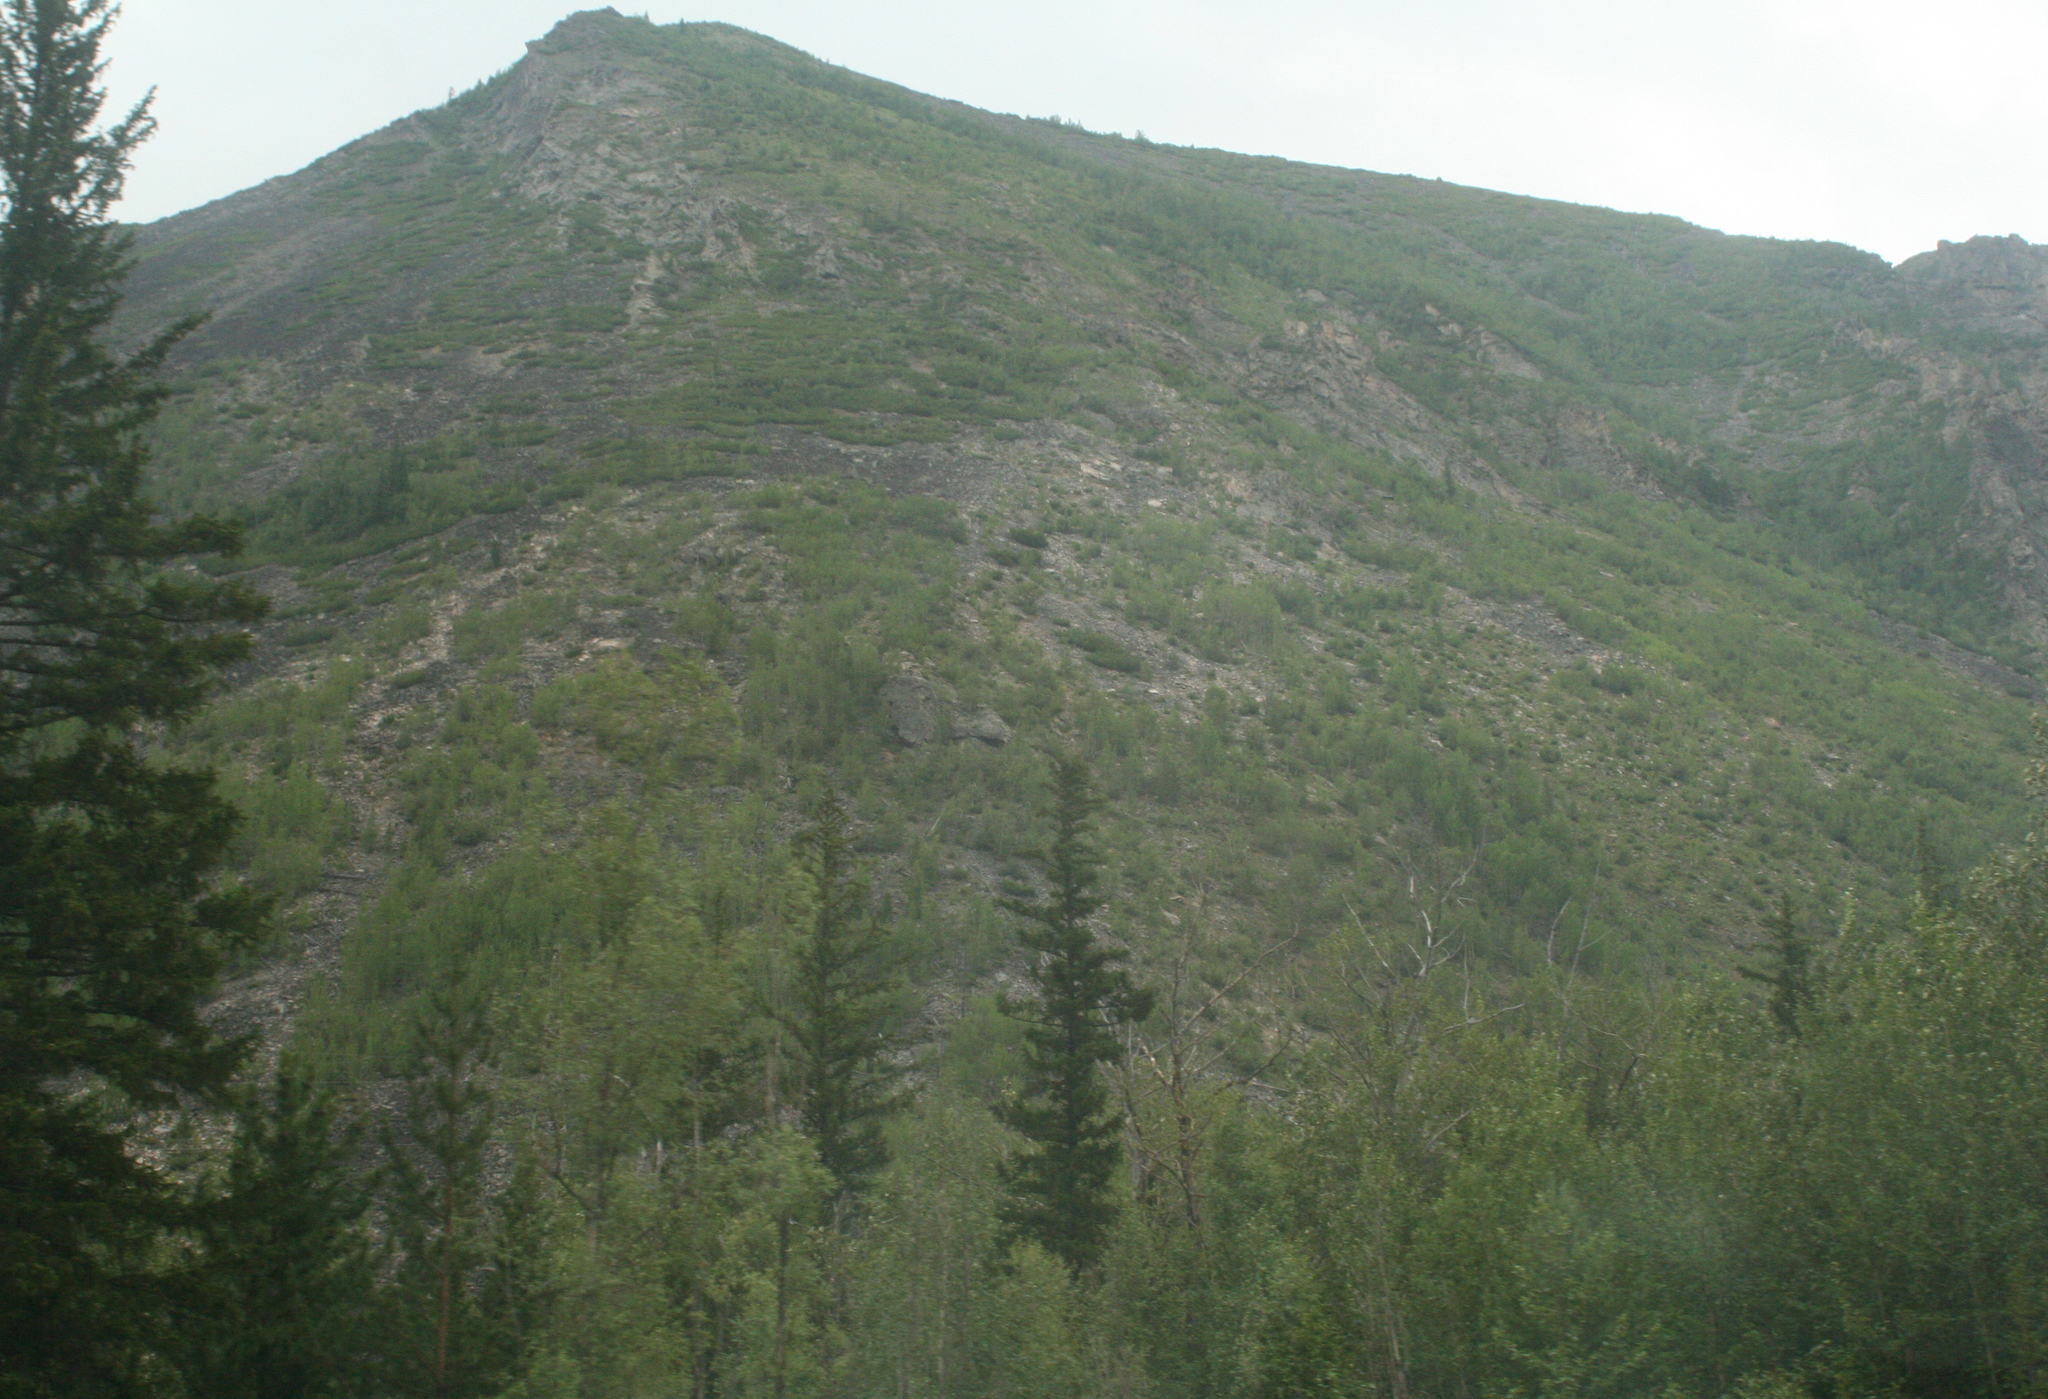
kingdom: Plantae
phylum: Tracheophyta
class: Pinopsida
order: Pinales
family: Pinaceae
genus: Picea
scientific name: Picea obovata
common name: Siberian spruce
